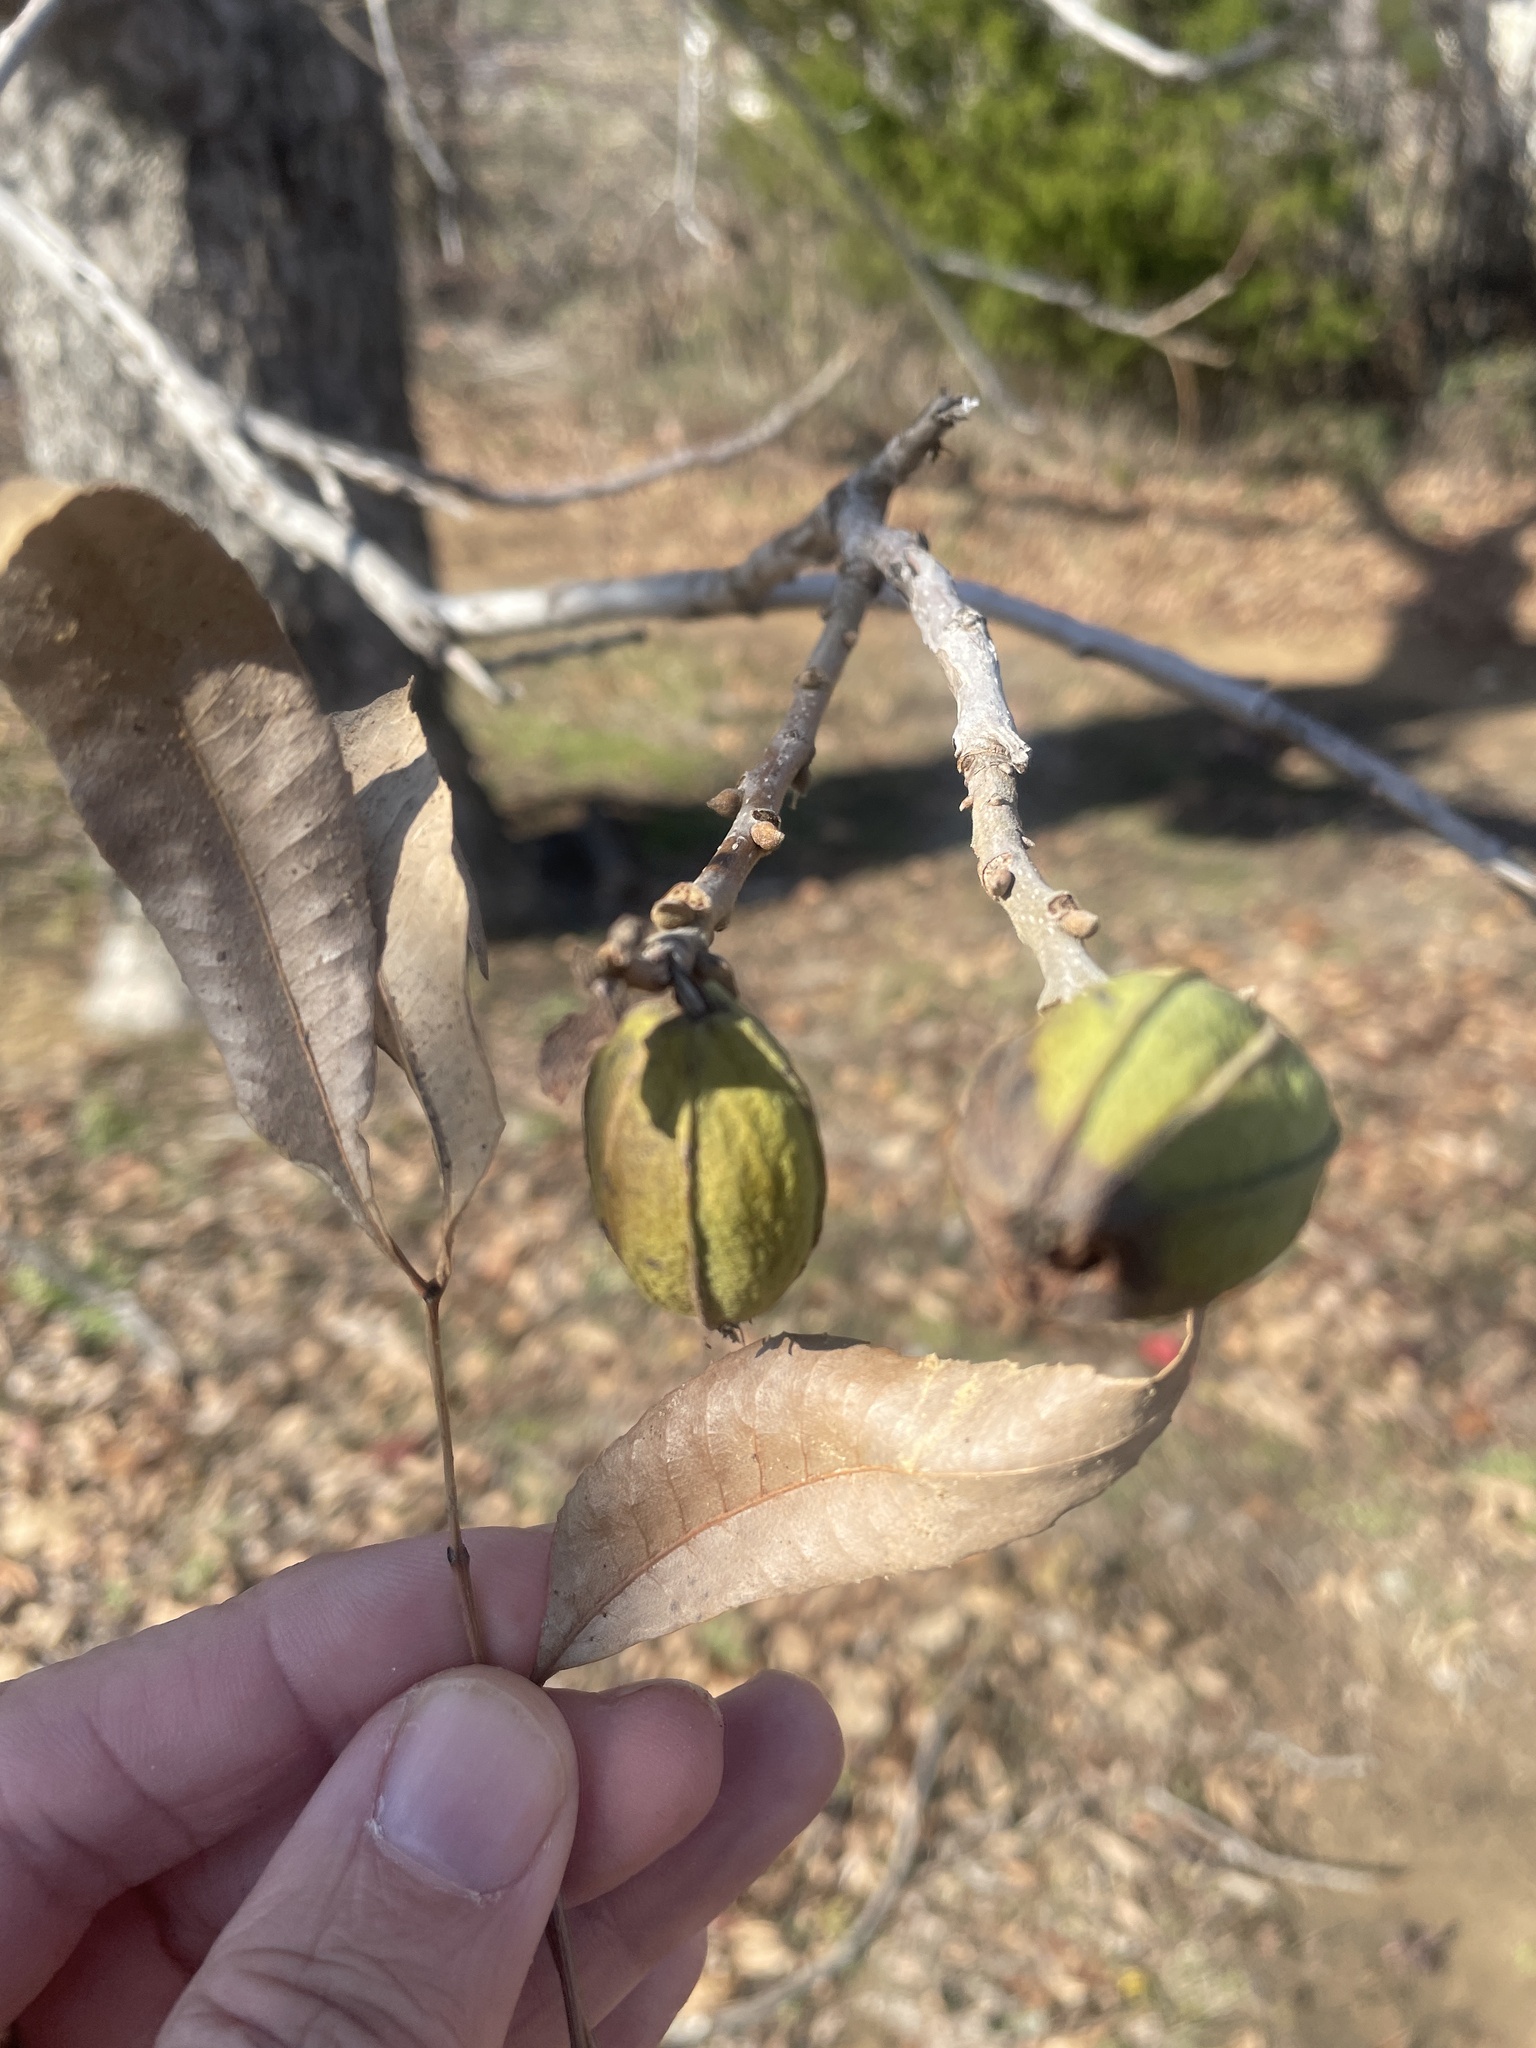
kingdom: Plantae
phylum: Tracheophyta
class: Magnoliopsida
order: Fagales
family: Juglandaceae
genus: Carya
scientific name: Carya illinoinensis
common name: Pecan
